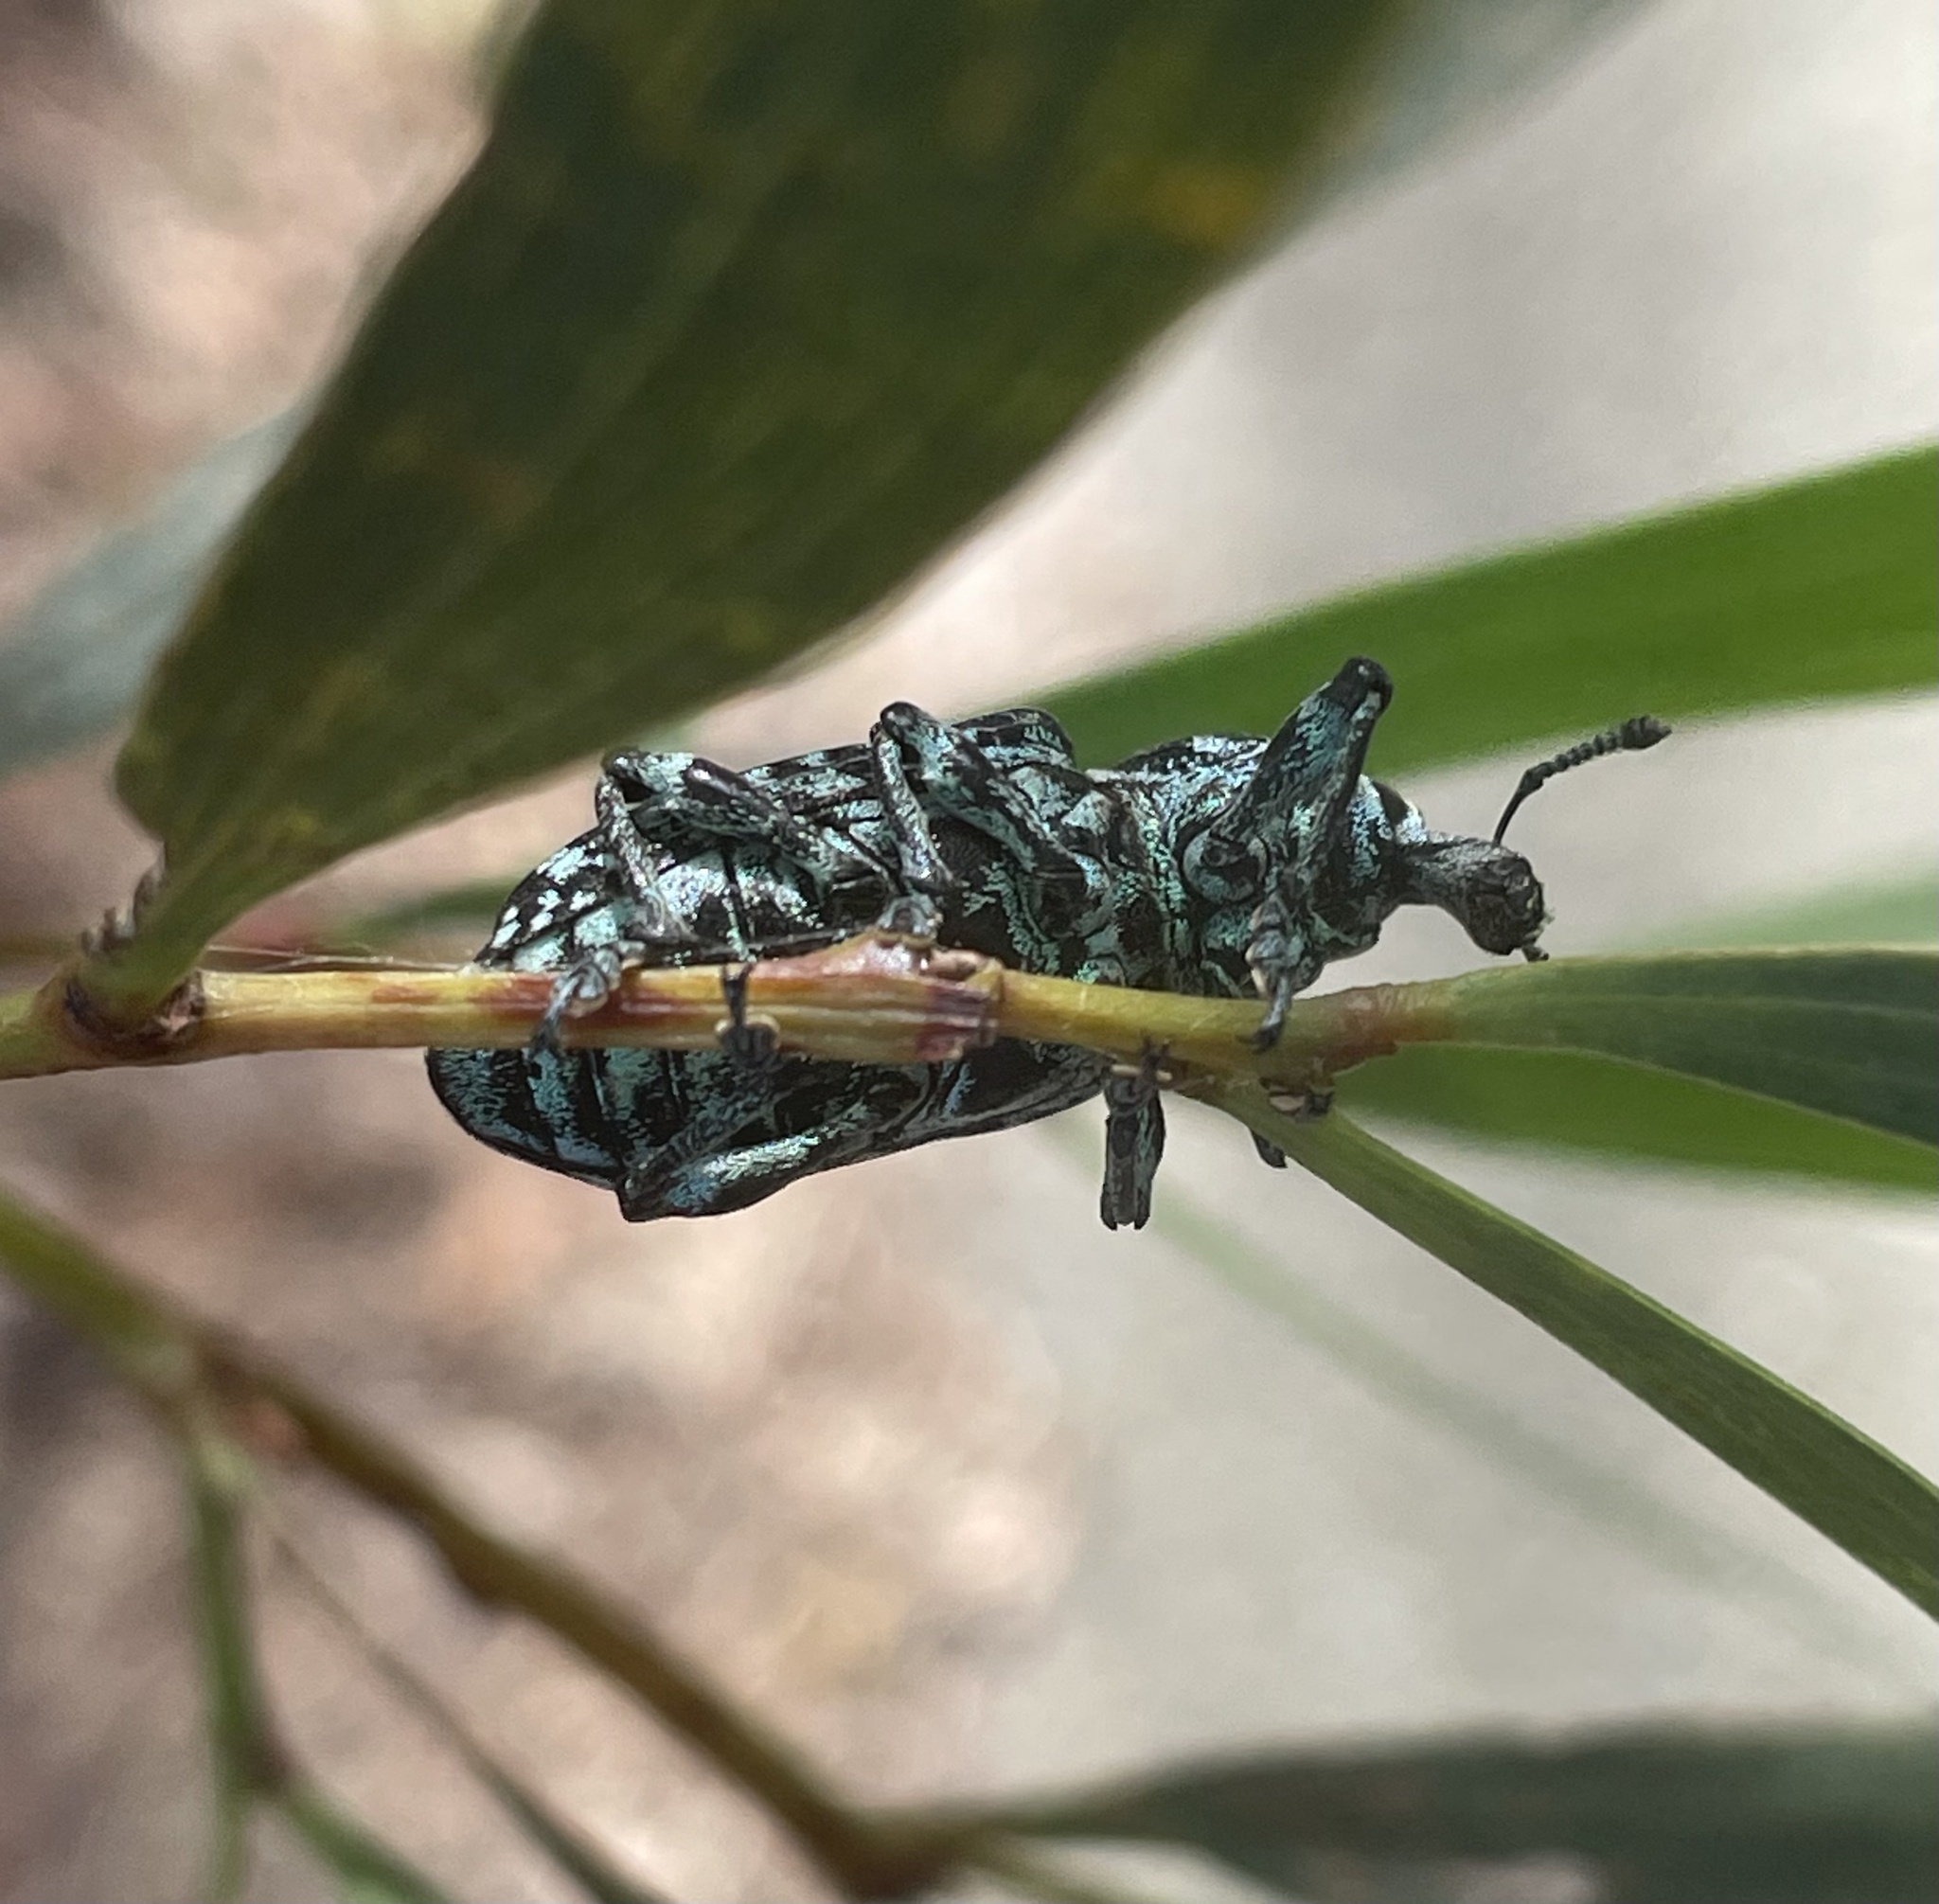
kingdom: Animalia
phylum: Arthropoda
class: Insecta
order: Coleoptera
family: Curculionidae
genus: Chrysolopus
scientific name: Chrysolopus spectabilis
